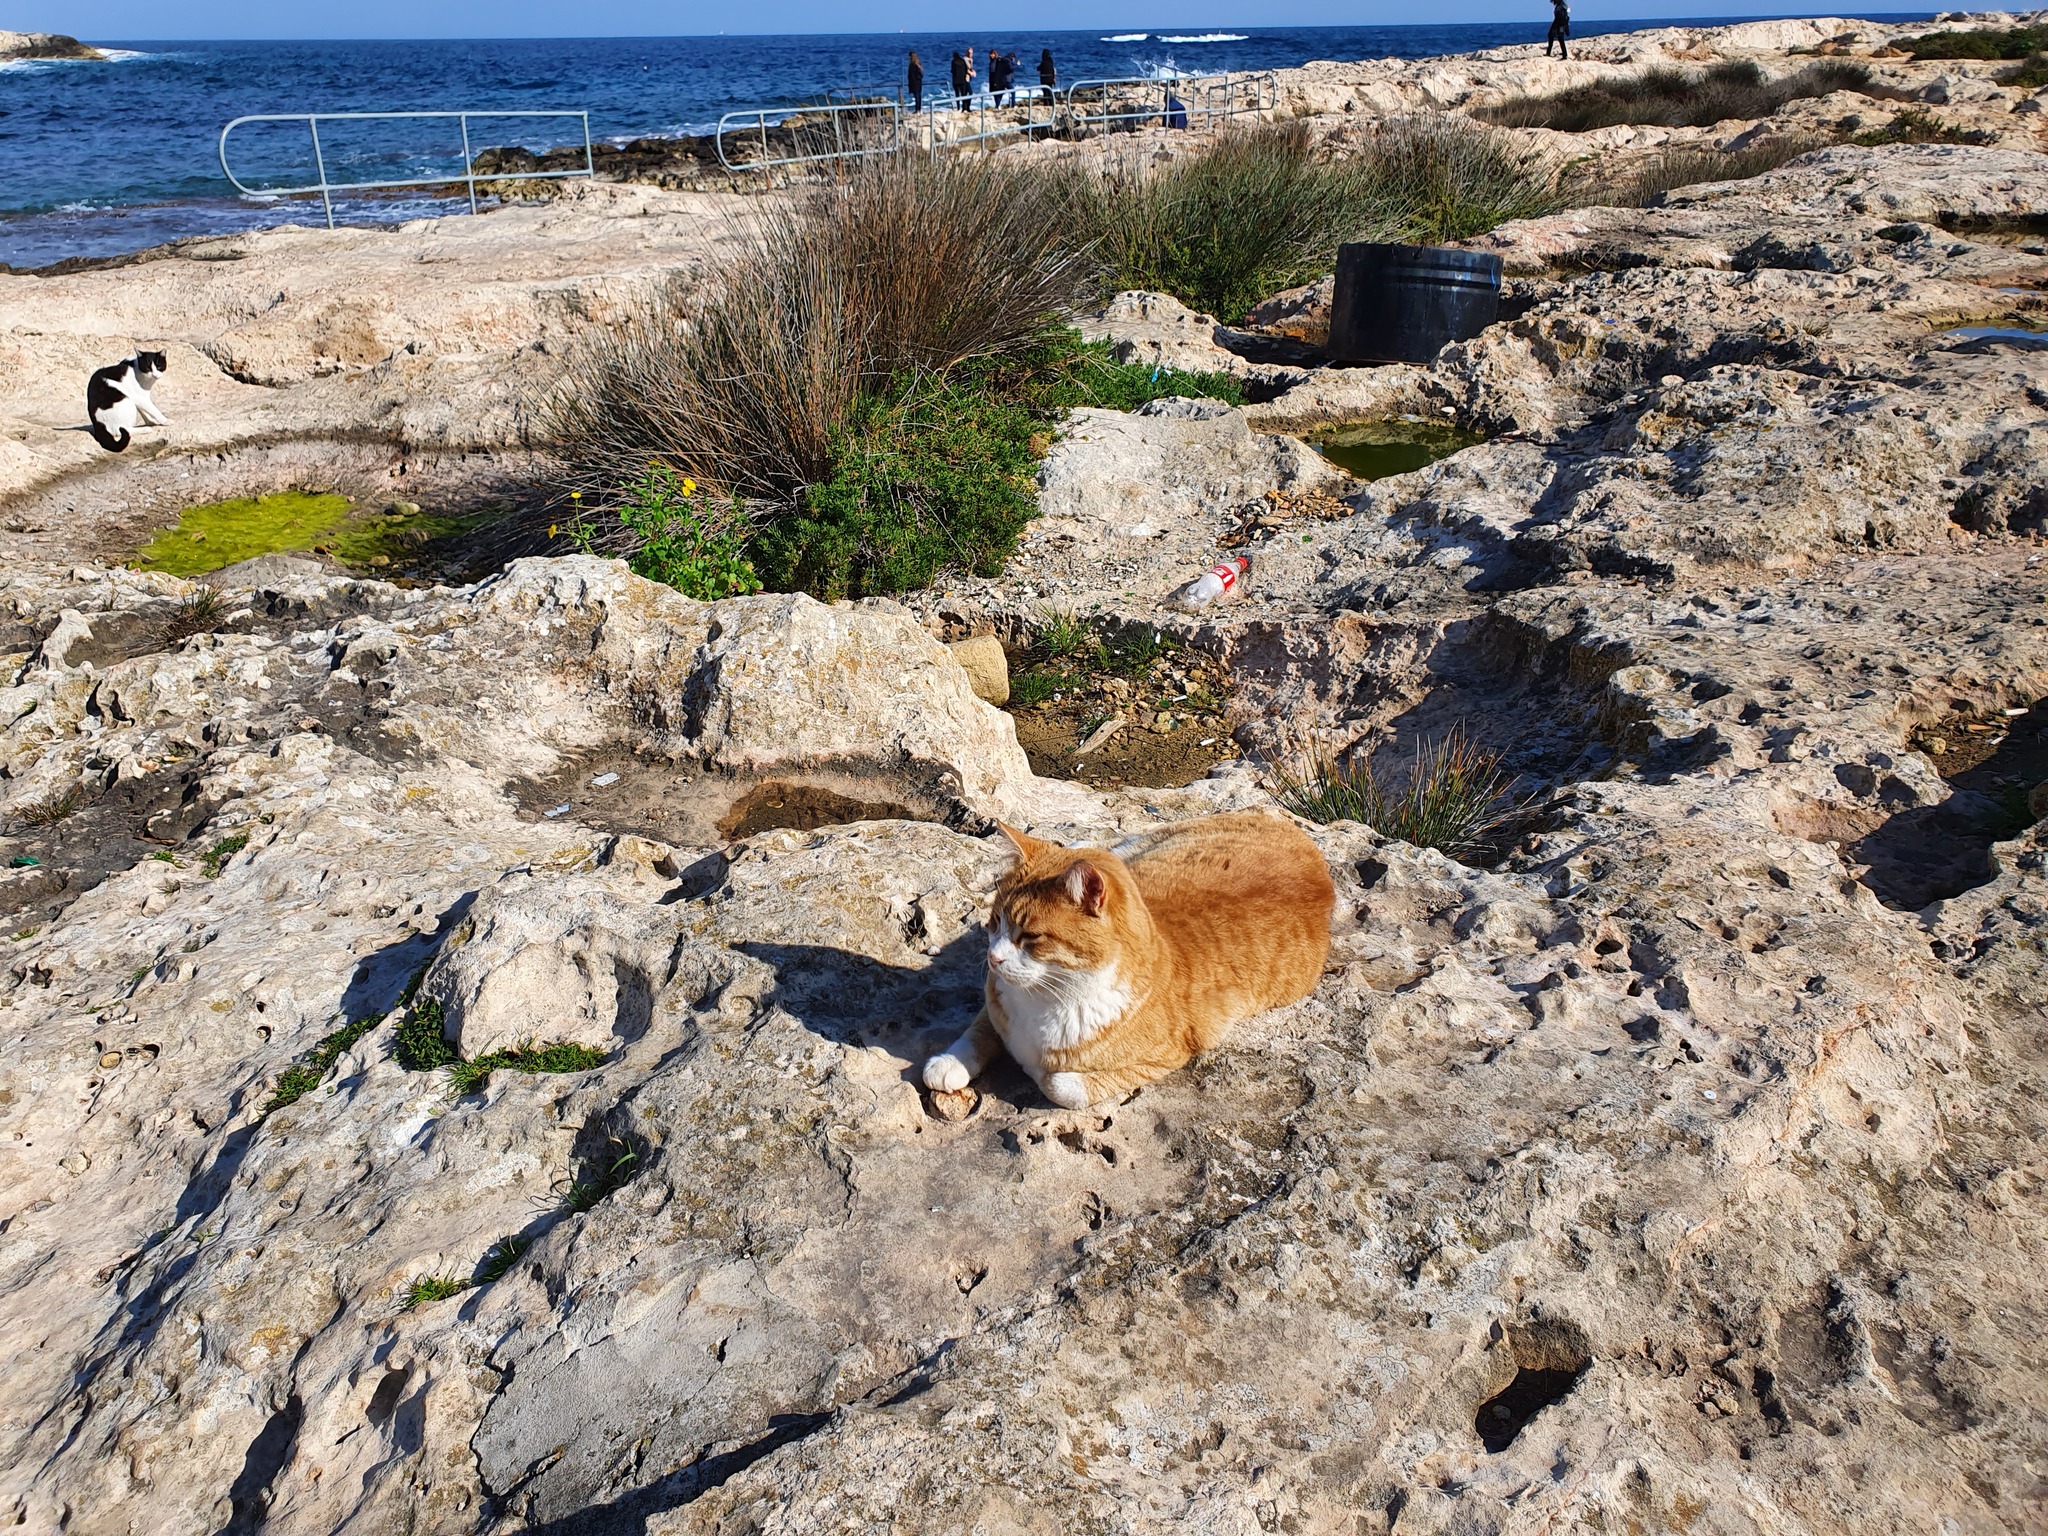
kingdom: Animalia
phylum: Chordata
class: Mammalia
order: Carnivora
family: Felidae
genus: Felis
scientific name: Felis catus
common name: Domestic cat
